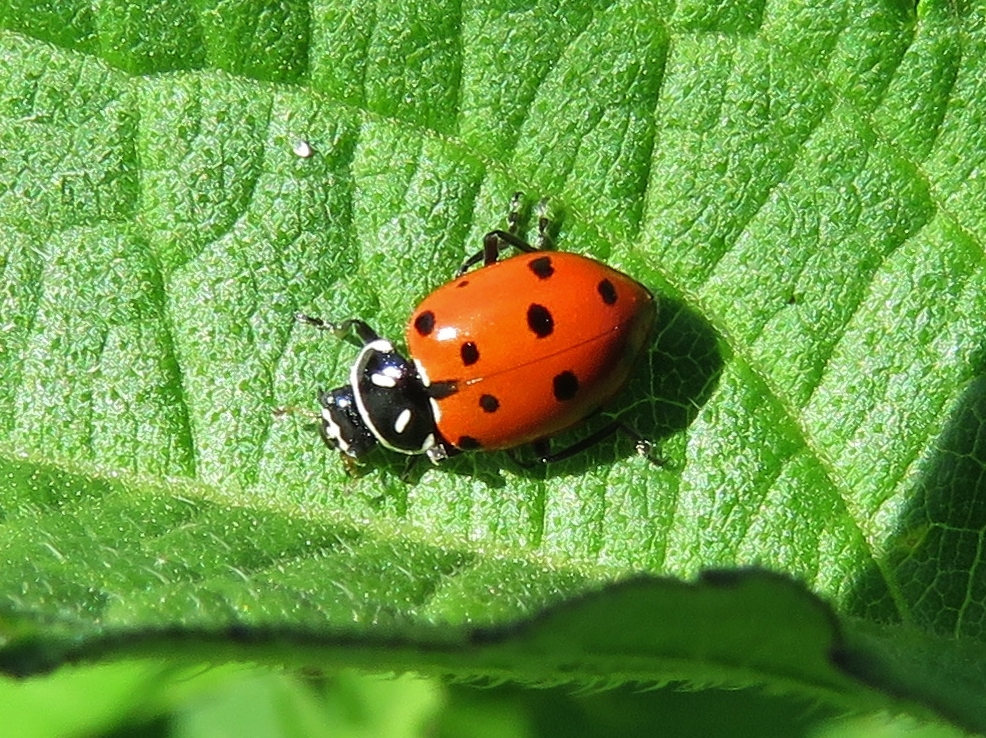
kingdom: Animalia
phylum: Arthropoda
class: Insecta
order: Coleoptera
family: Coccinellidae
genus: Hippodamia
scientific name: Hippodamia convergens
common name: Convergent lady beetle
